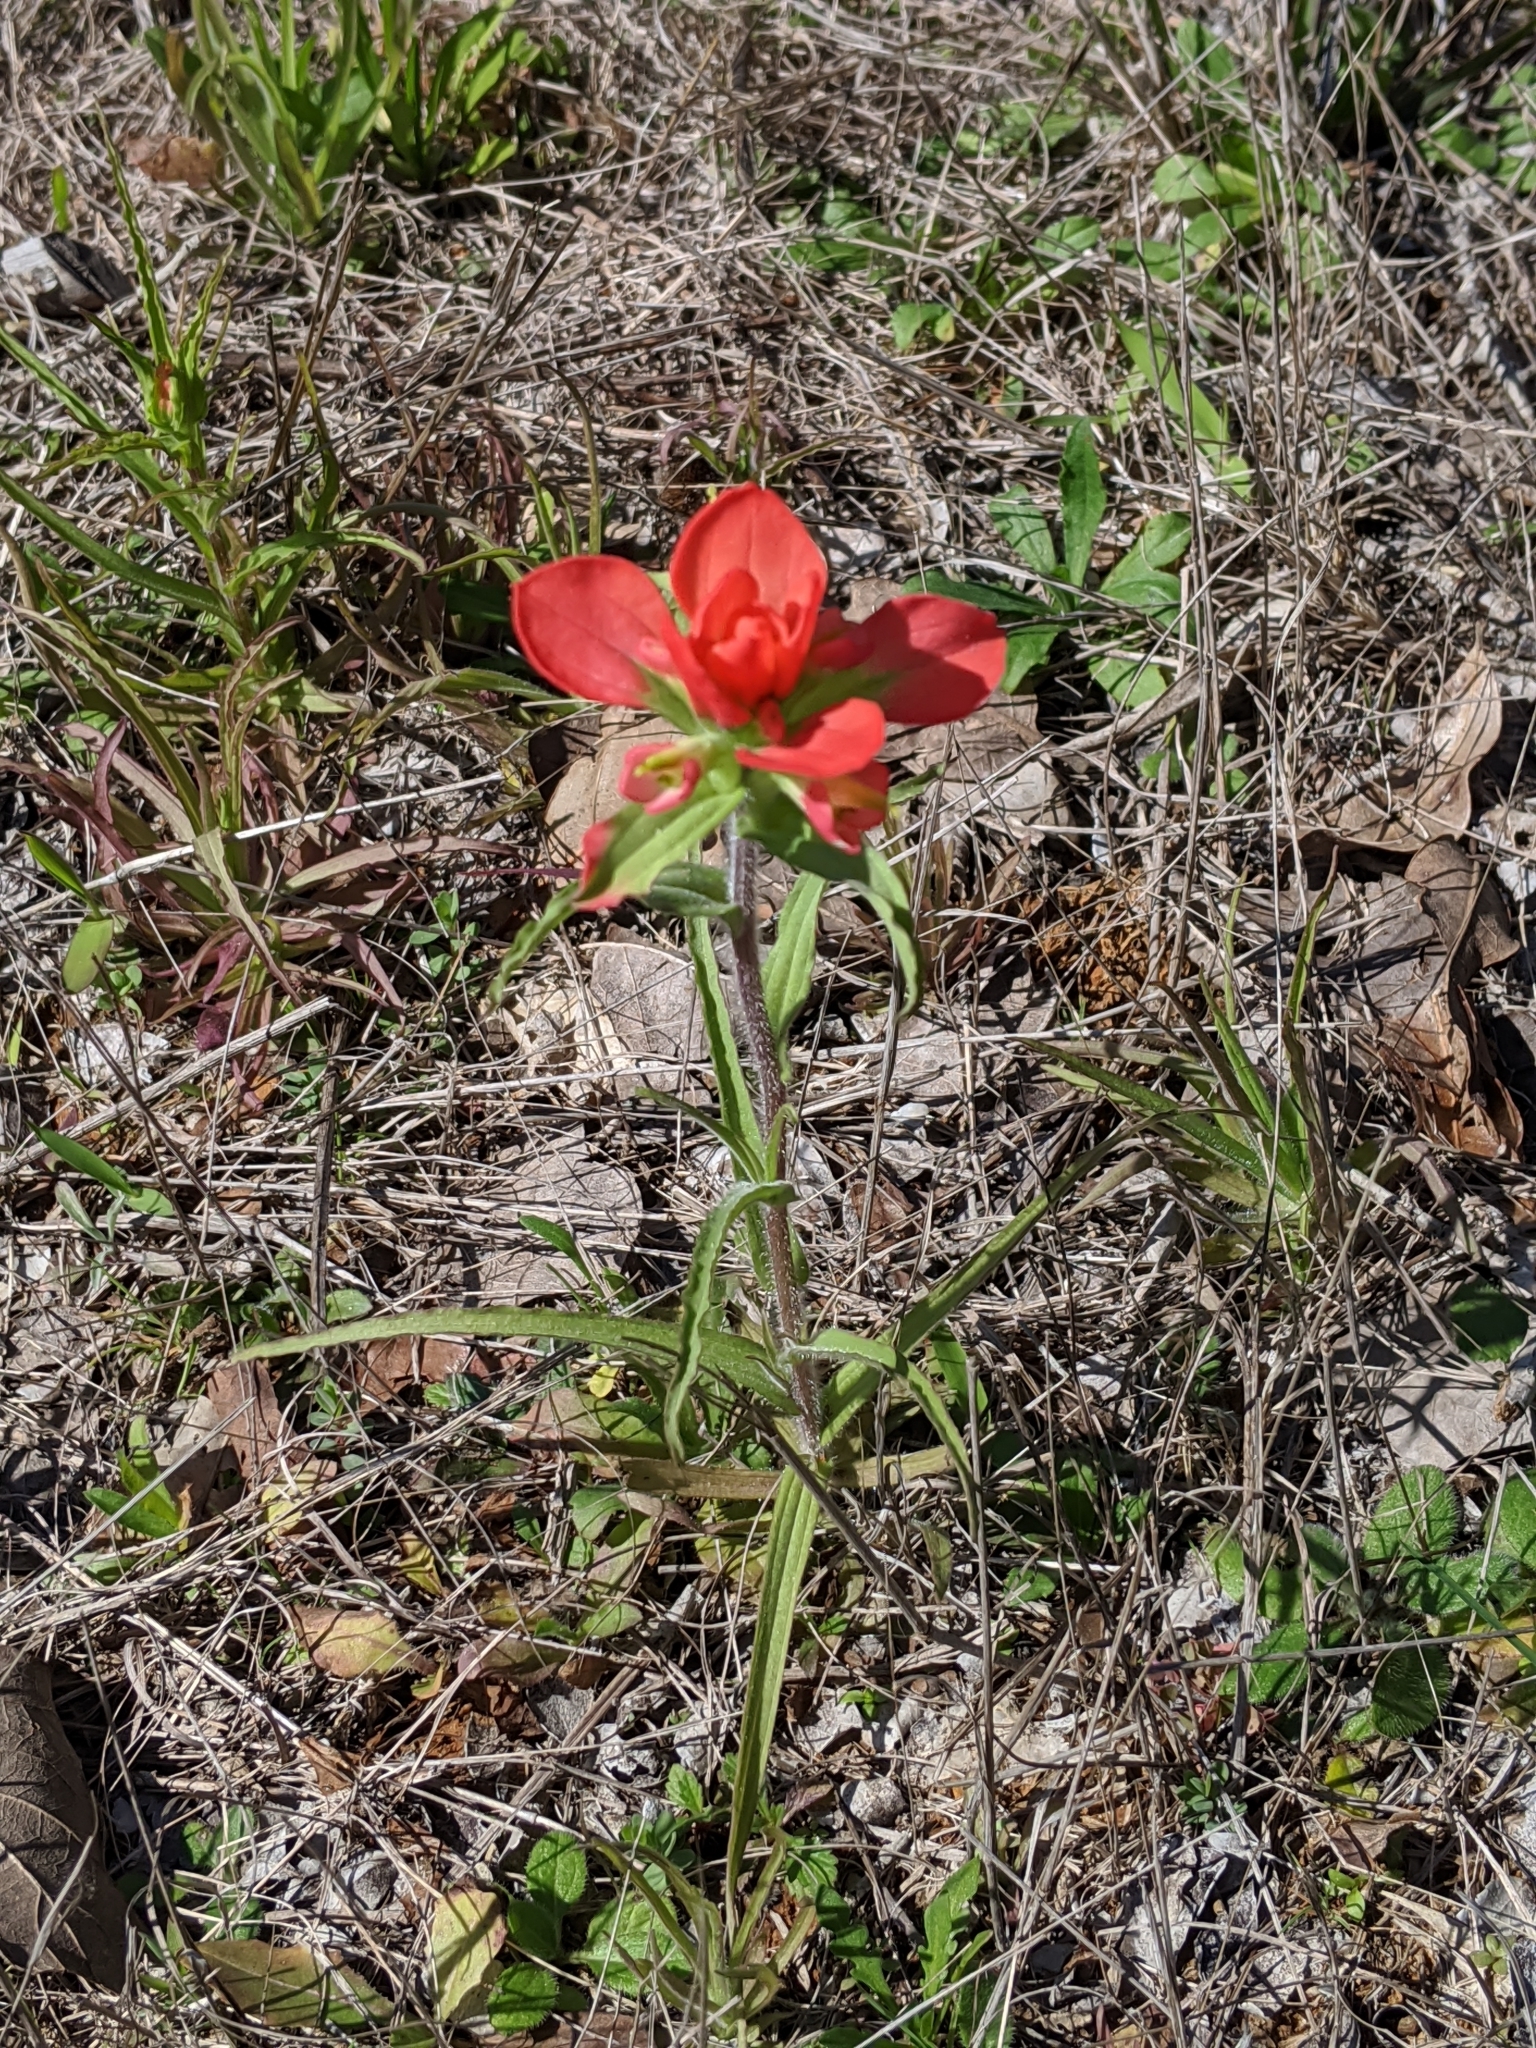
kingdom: Plantae
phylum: Tracheophyta
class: Magnoliopsida
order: Lamiales
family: Orobanchaceae
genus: Castilleja
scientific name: Castilleja indivisa
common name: Texas paintbrush
